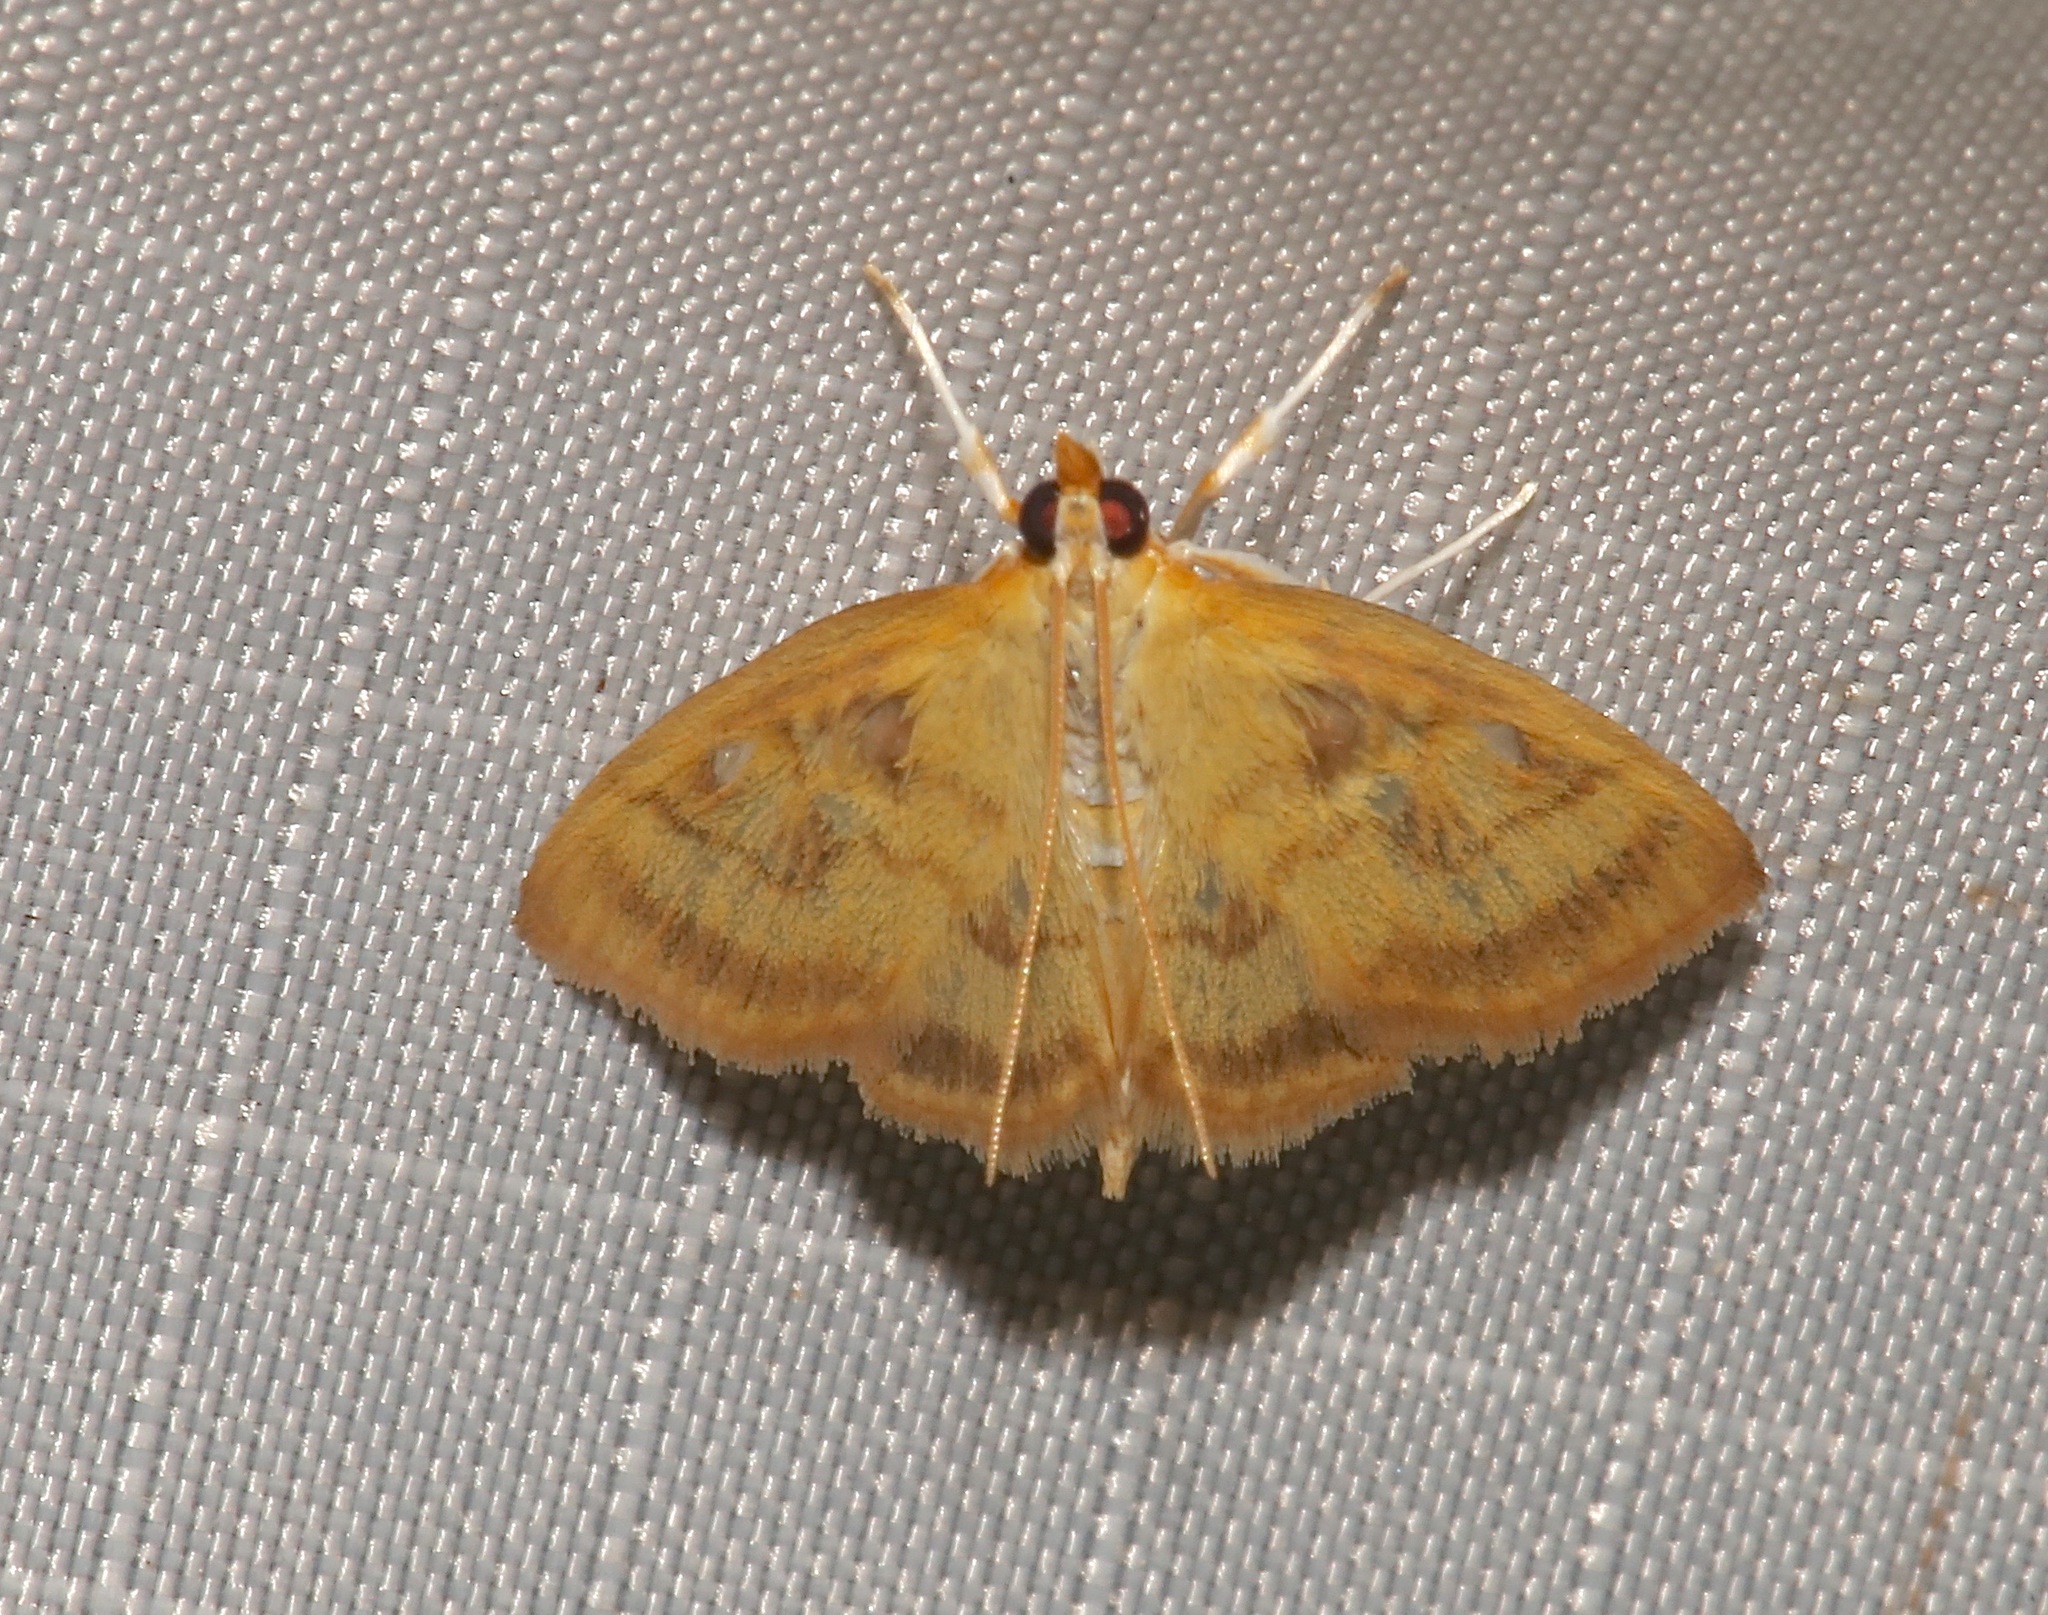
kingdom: Animalia
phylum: Arthropoda
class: Insecta
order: Lepidoptera
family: Crambidae
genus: Crocidophora
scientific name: Crocidophora tuberculalis
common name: Pale-winged crocidiphora moth
